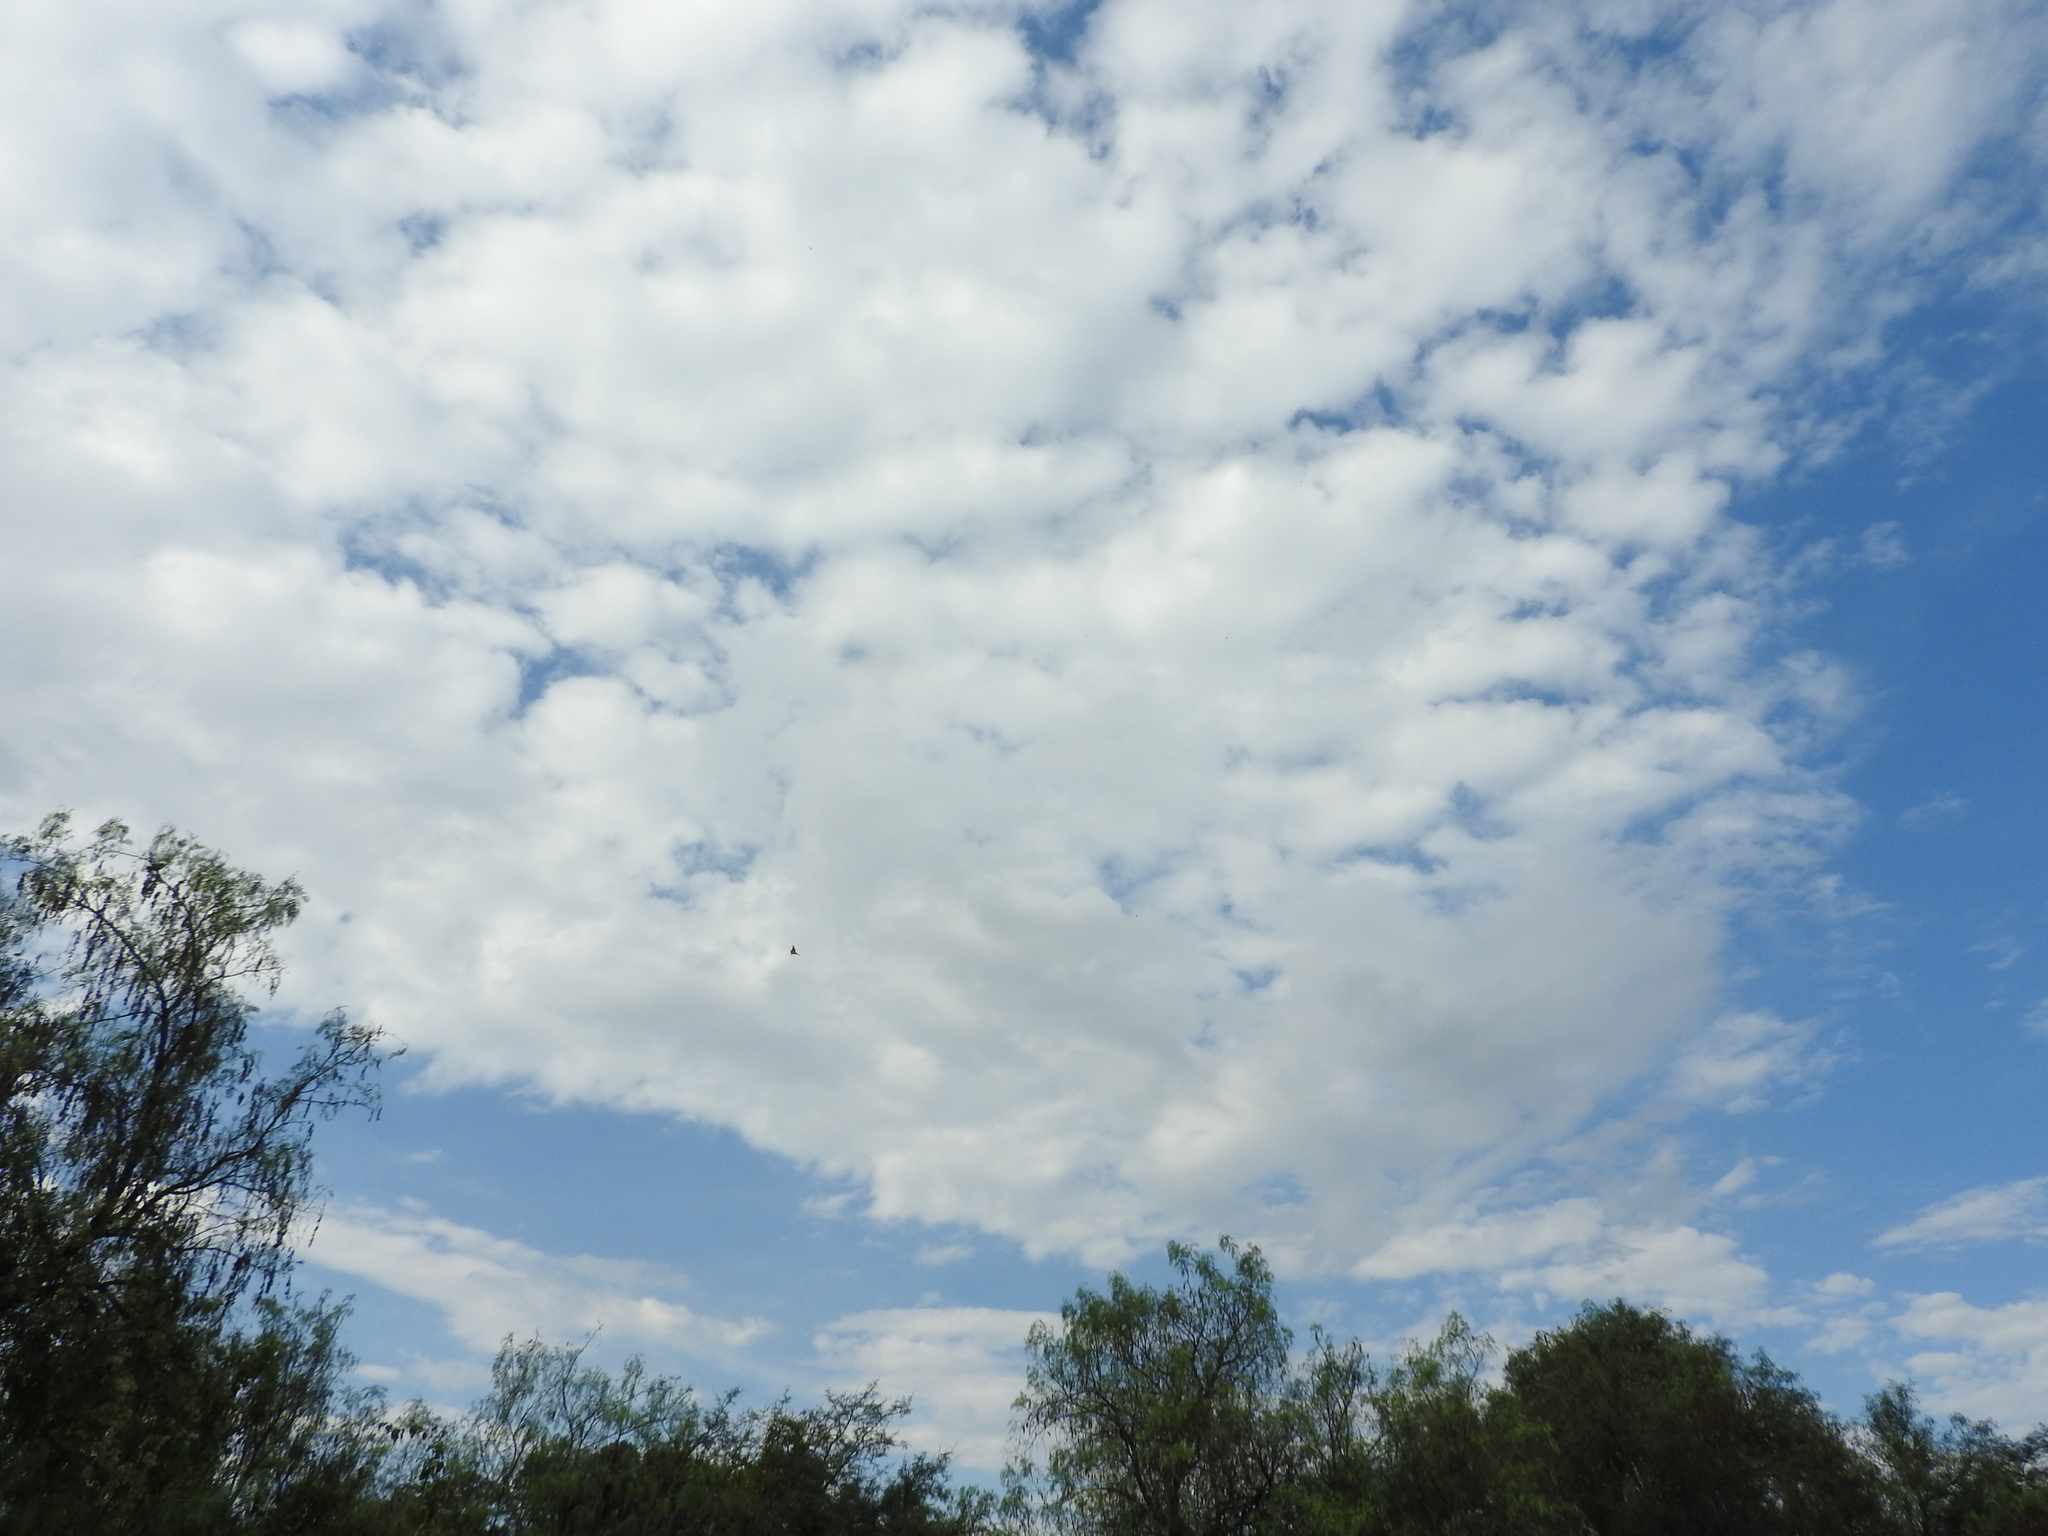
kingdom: Animalia
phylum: Arthropoda
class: Insecta
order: Lepidoptera
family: Nymphalidae
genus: Danaus
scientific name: Danaus plexippus
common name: Monarch
